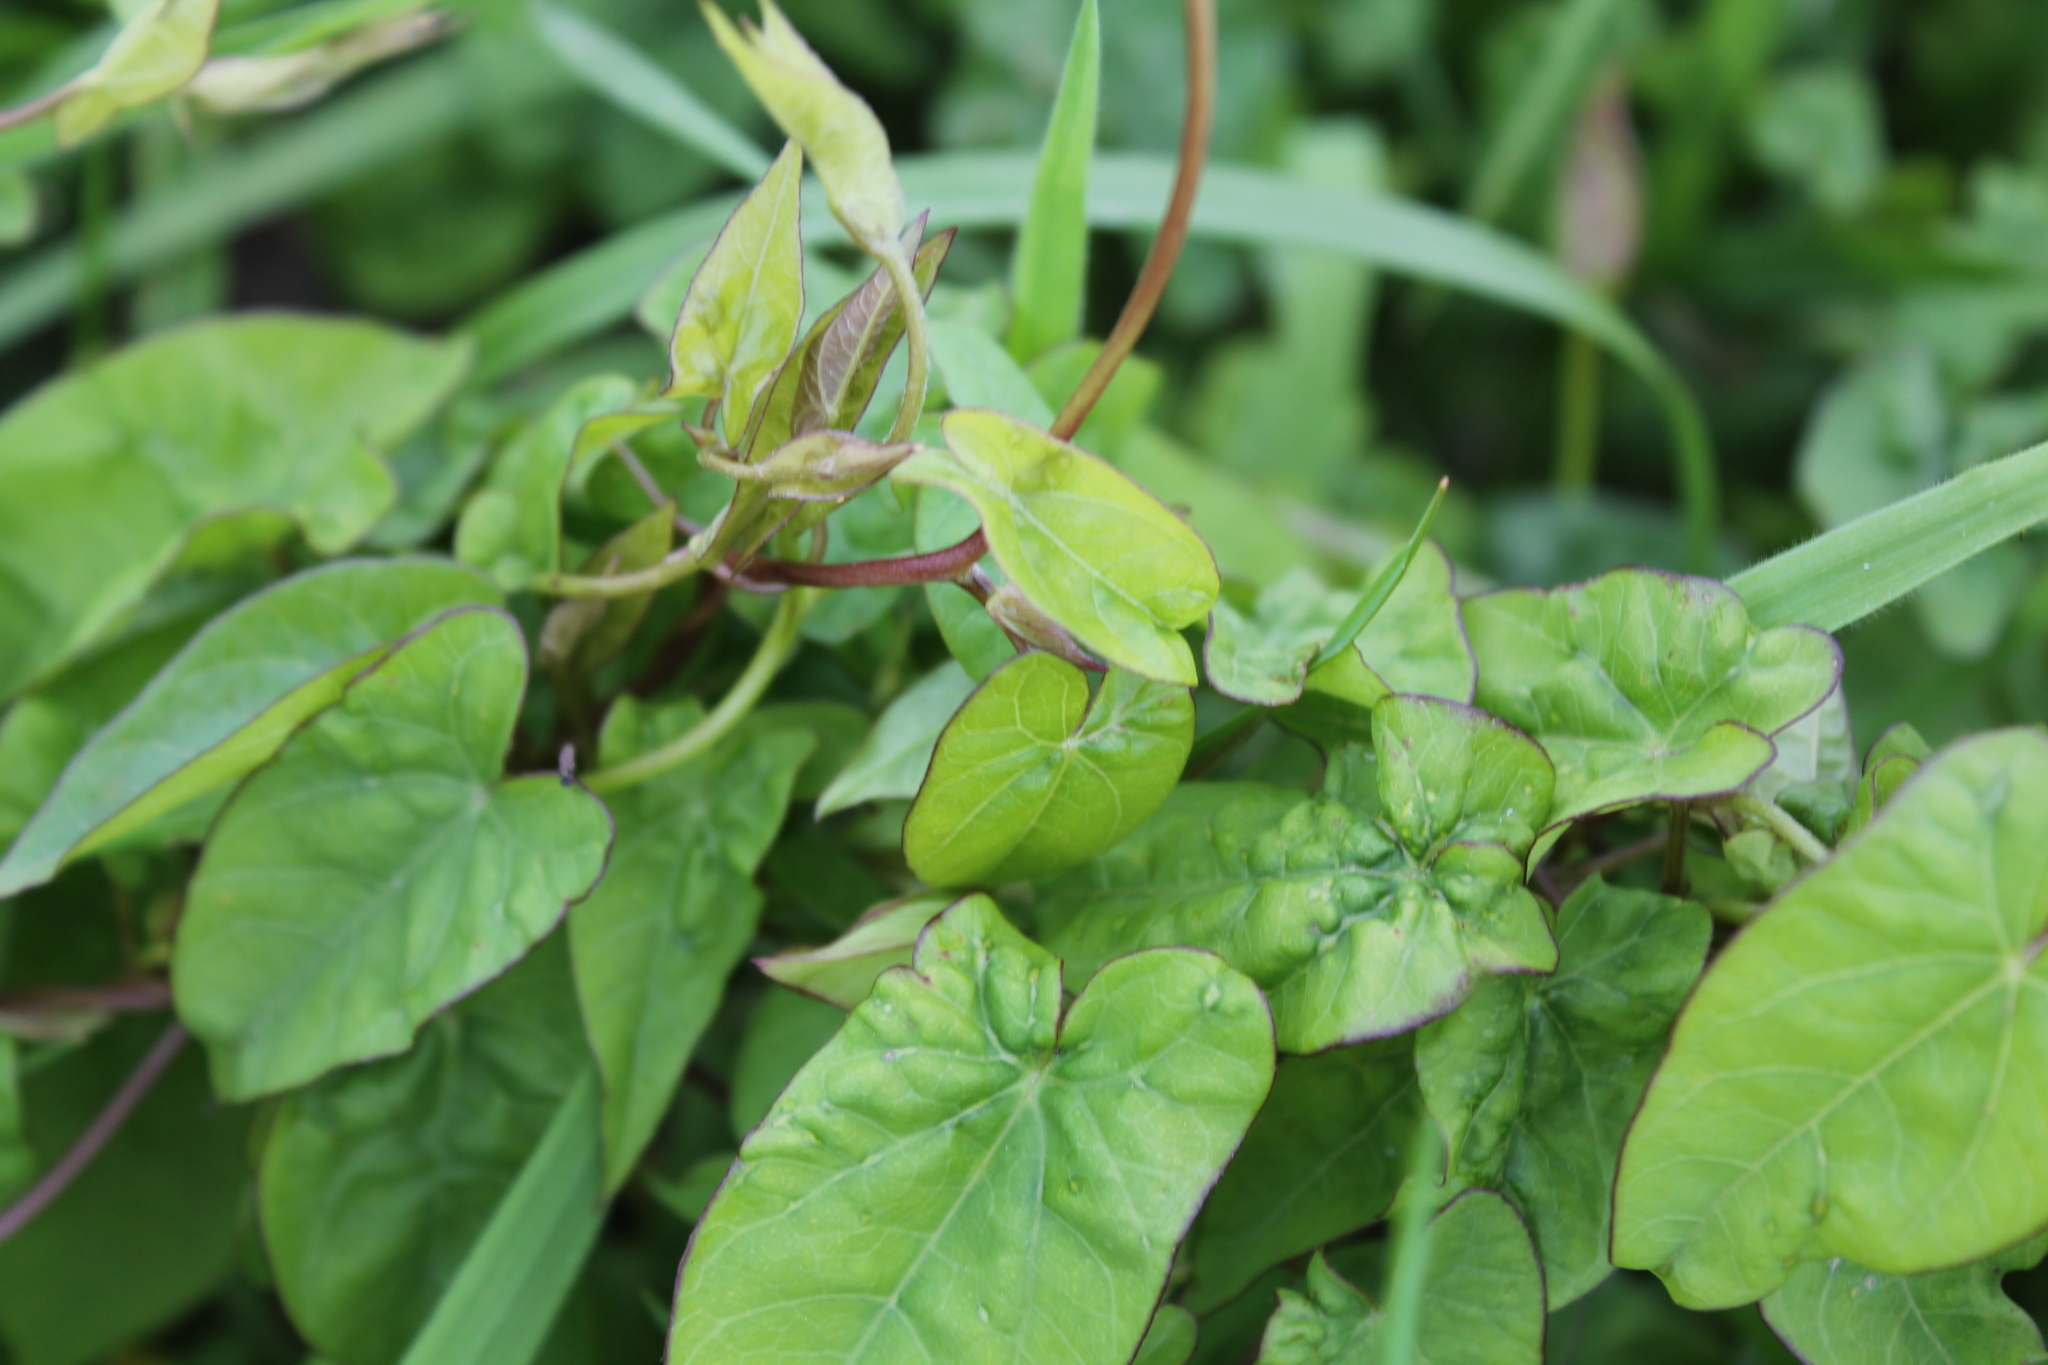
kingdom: Plantae
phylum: Tracheophyta
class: Magnoliopsida
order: Solanales
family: Convolvulaceae
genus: Calystegia
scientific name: Calystegia sepium
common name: Hedge bindweed
